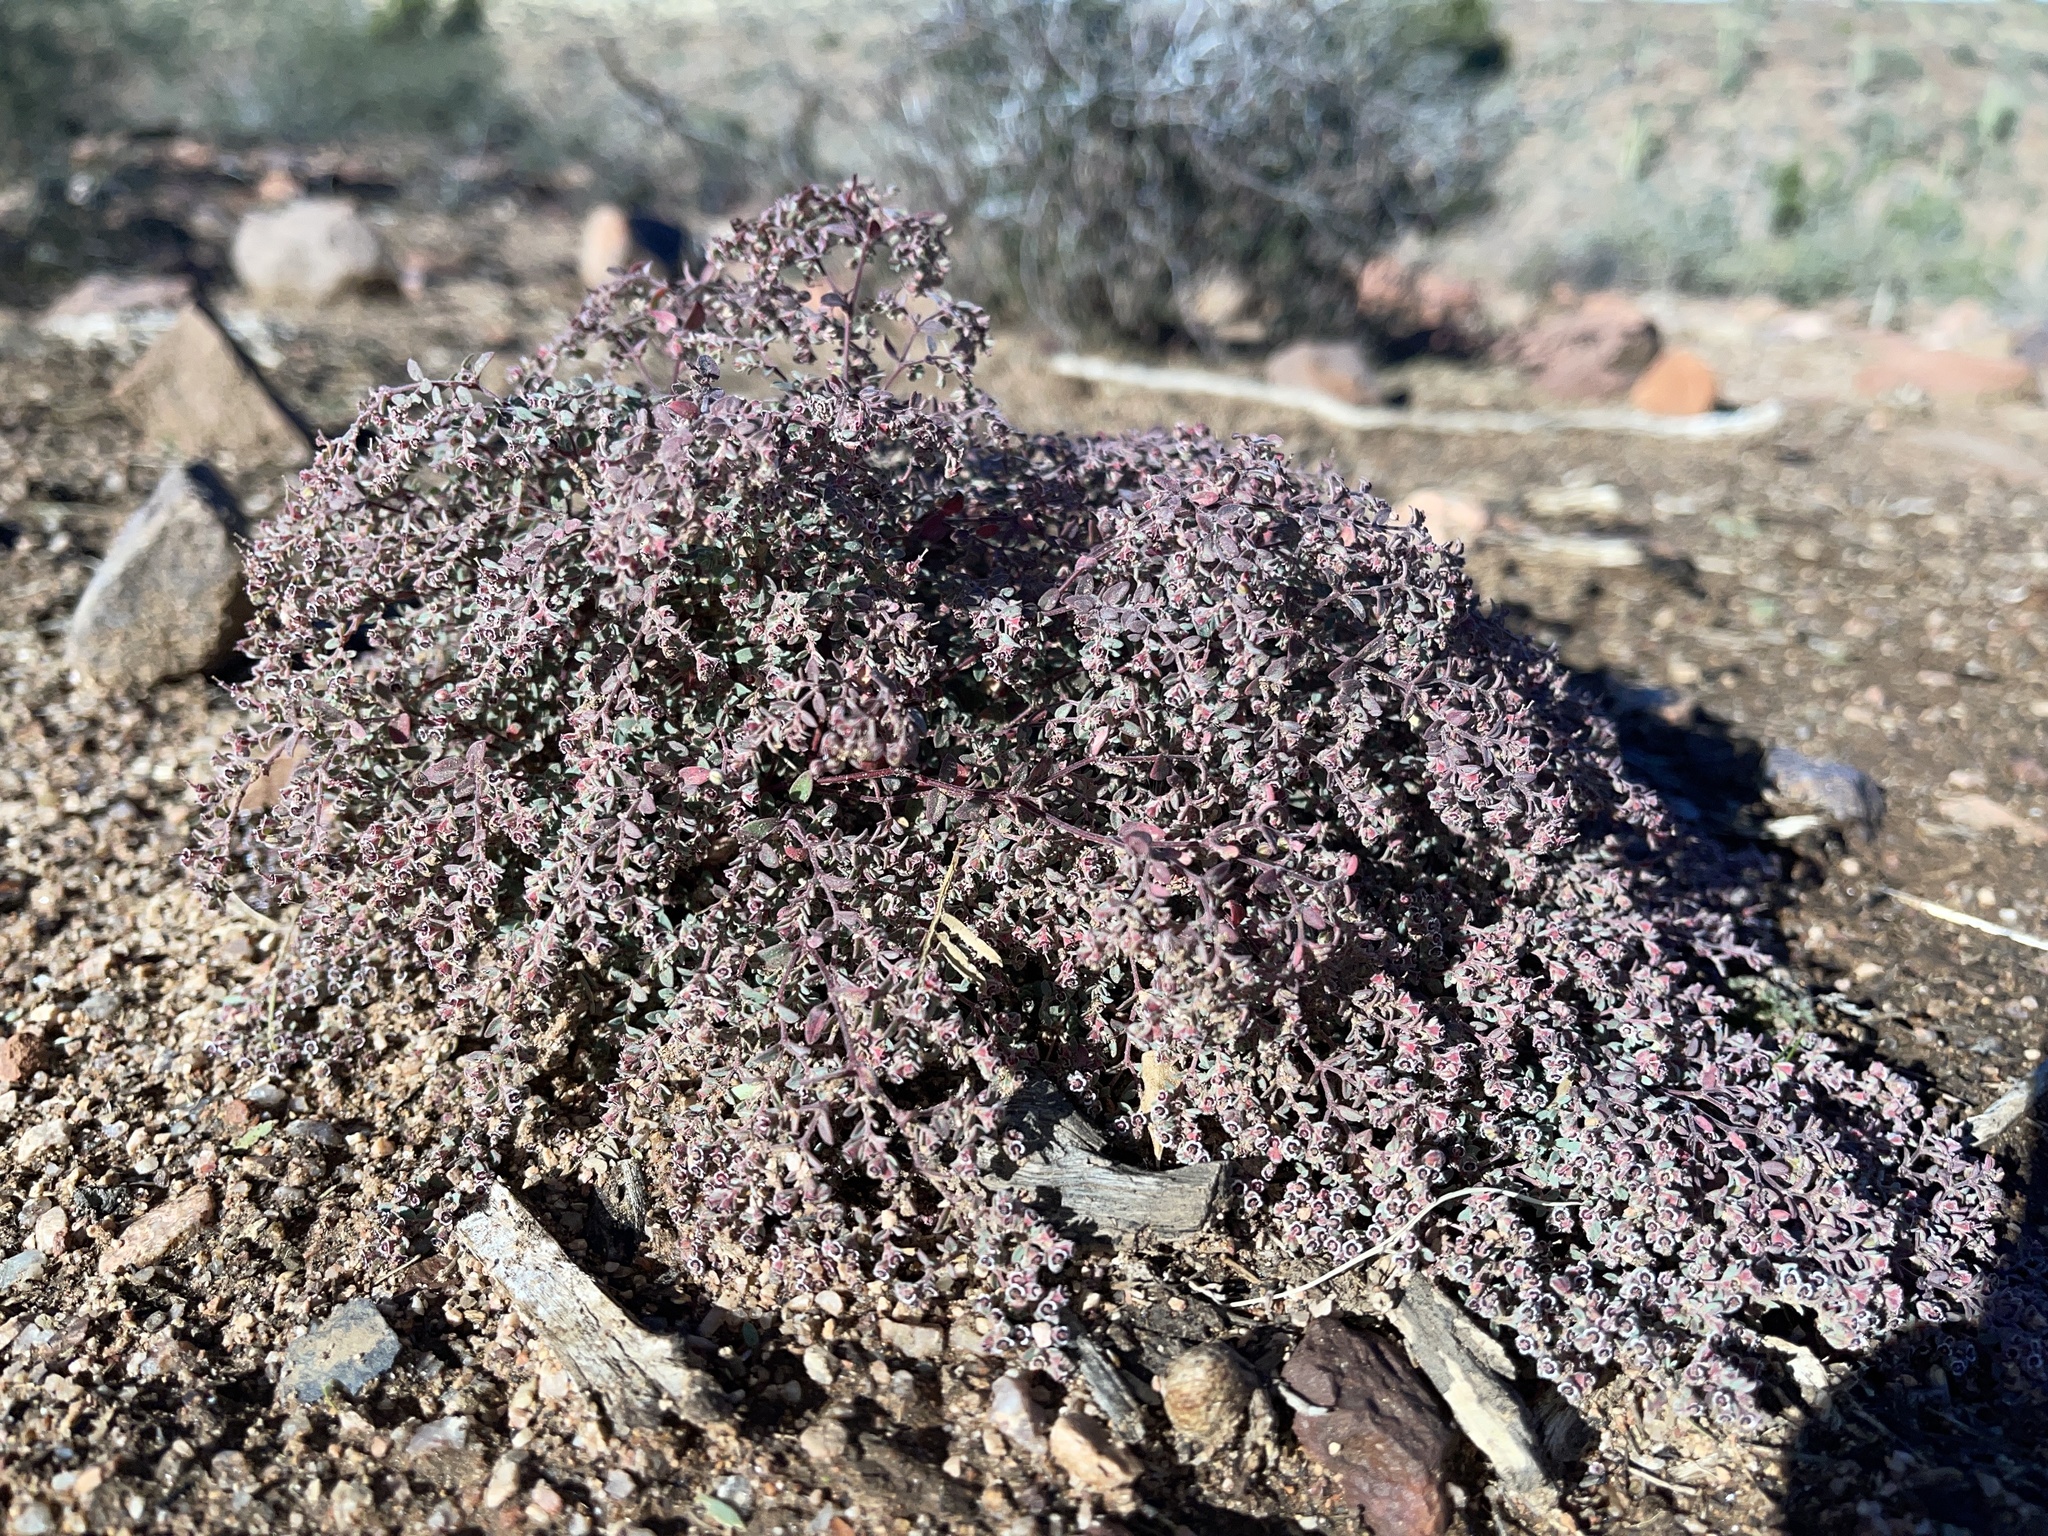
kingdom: Plantae
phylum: Tracheophyta
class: Magnoliopsida
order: Malpighiales
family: Euphorbiaceae
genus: Euphorbia
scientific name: Euphorbia melanadenia
